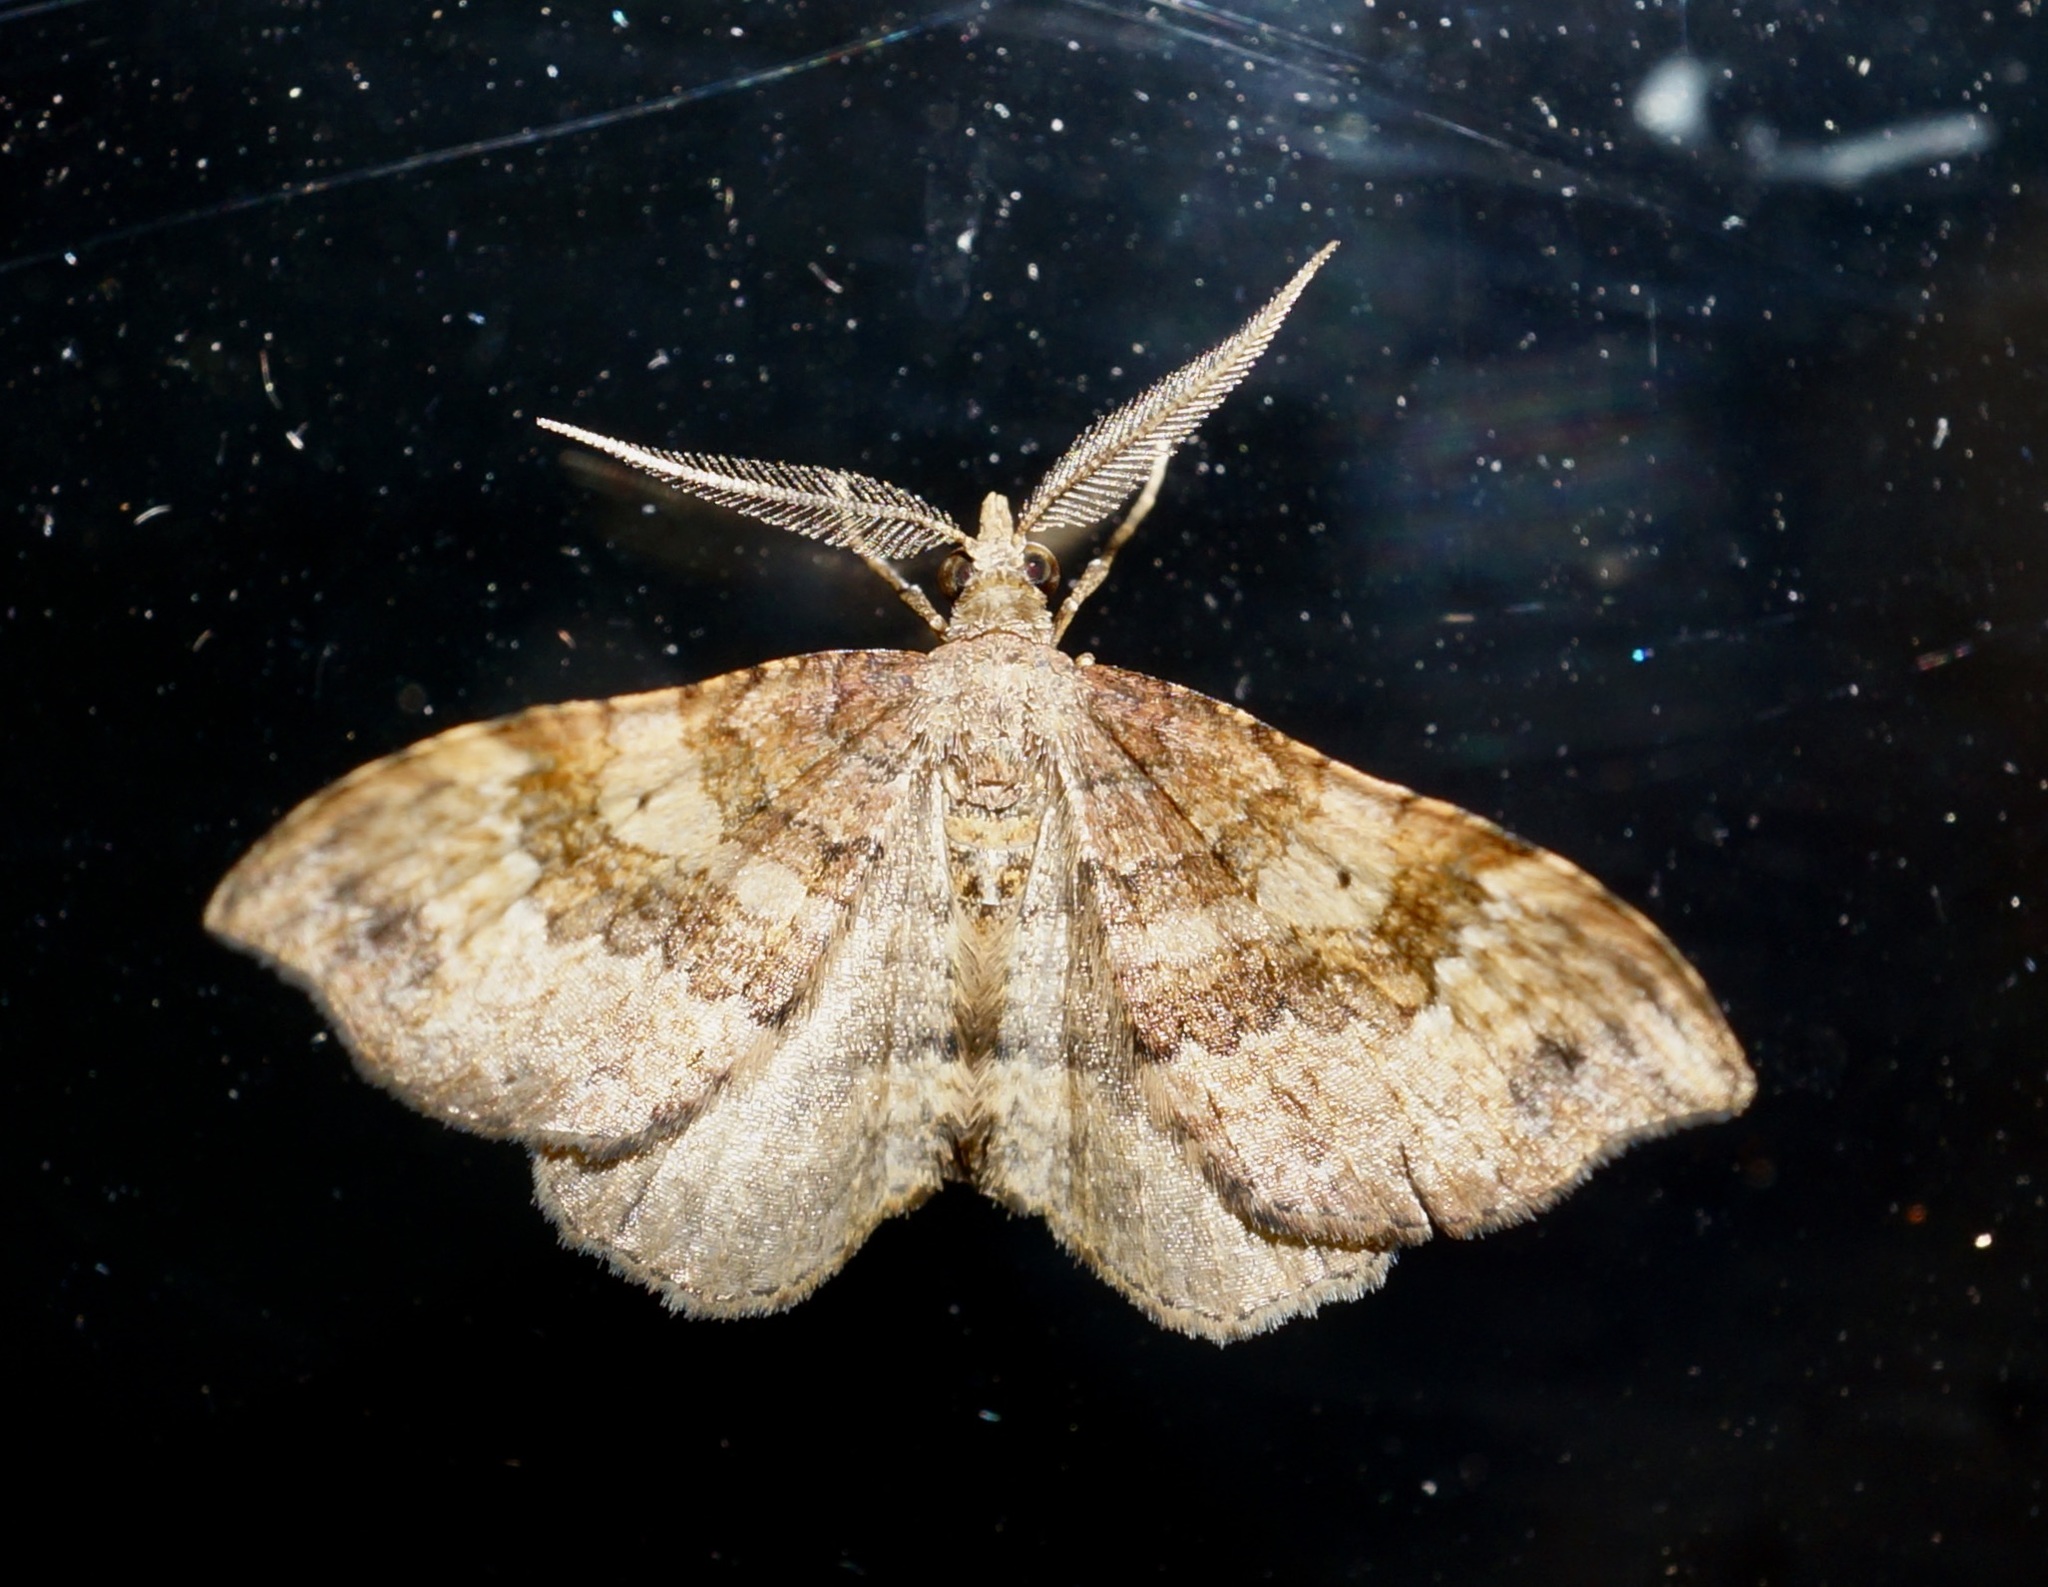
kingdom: Animalia
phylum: Arthropoda
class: Insecta
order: Lepidoptera
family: Geometridae
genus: Homodotis
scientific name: Homodotis megaspilata
